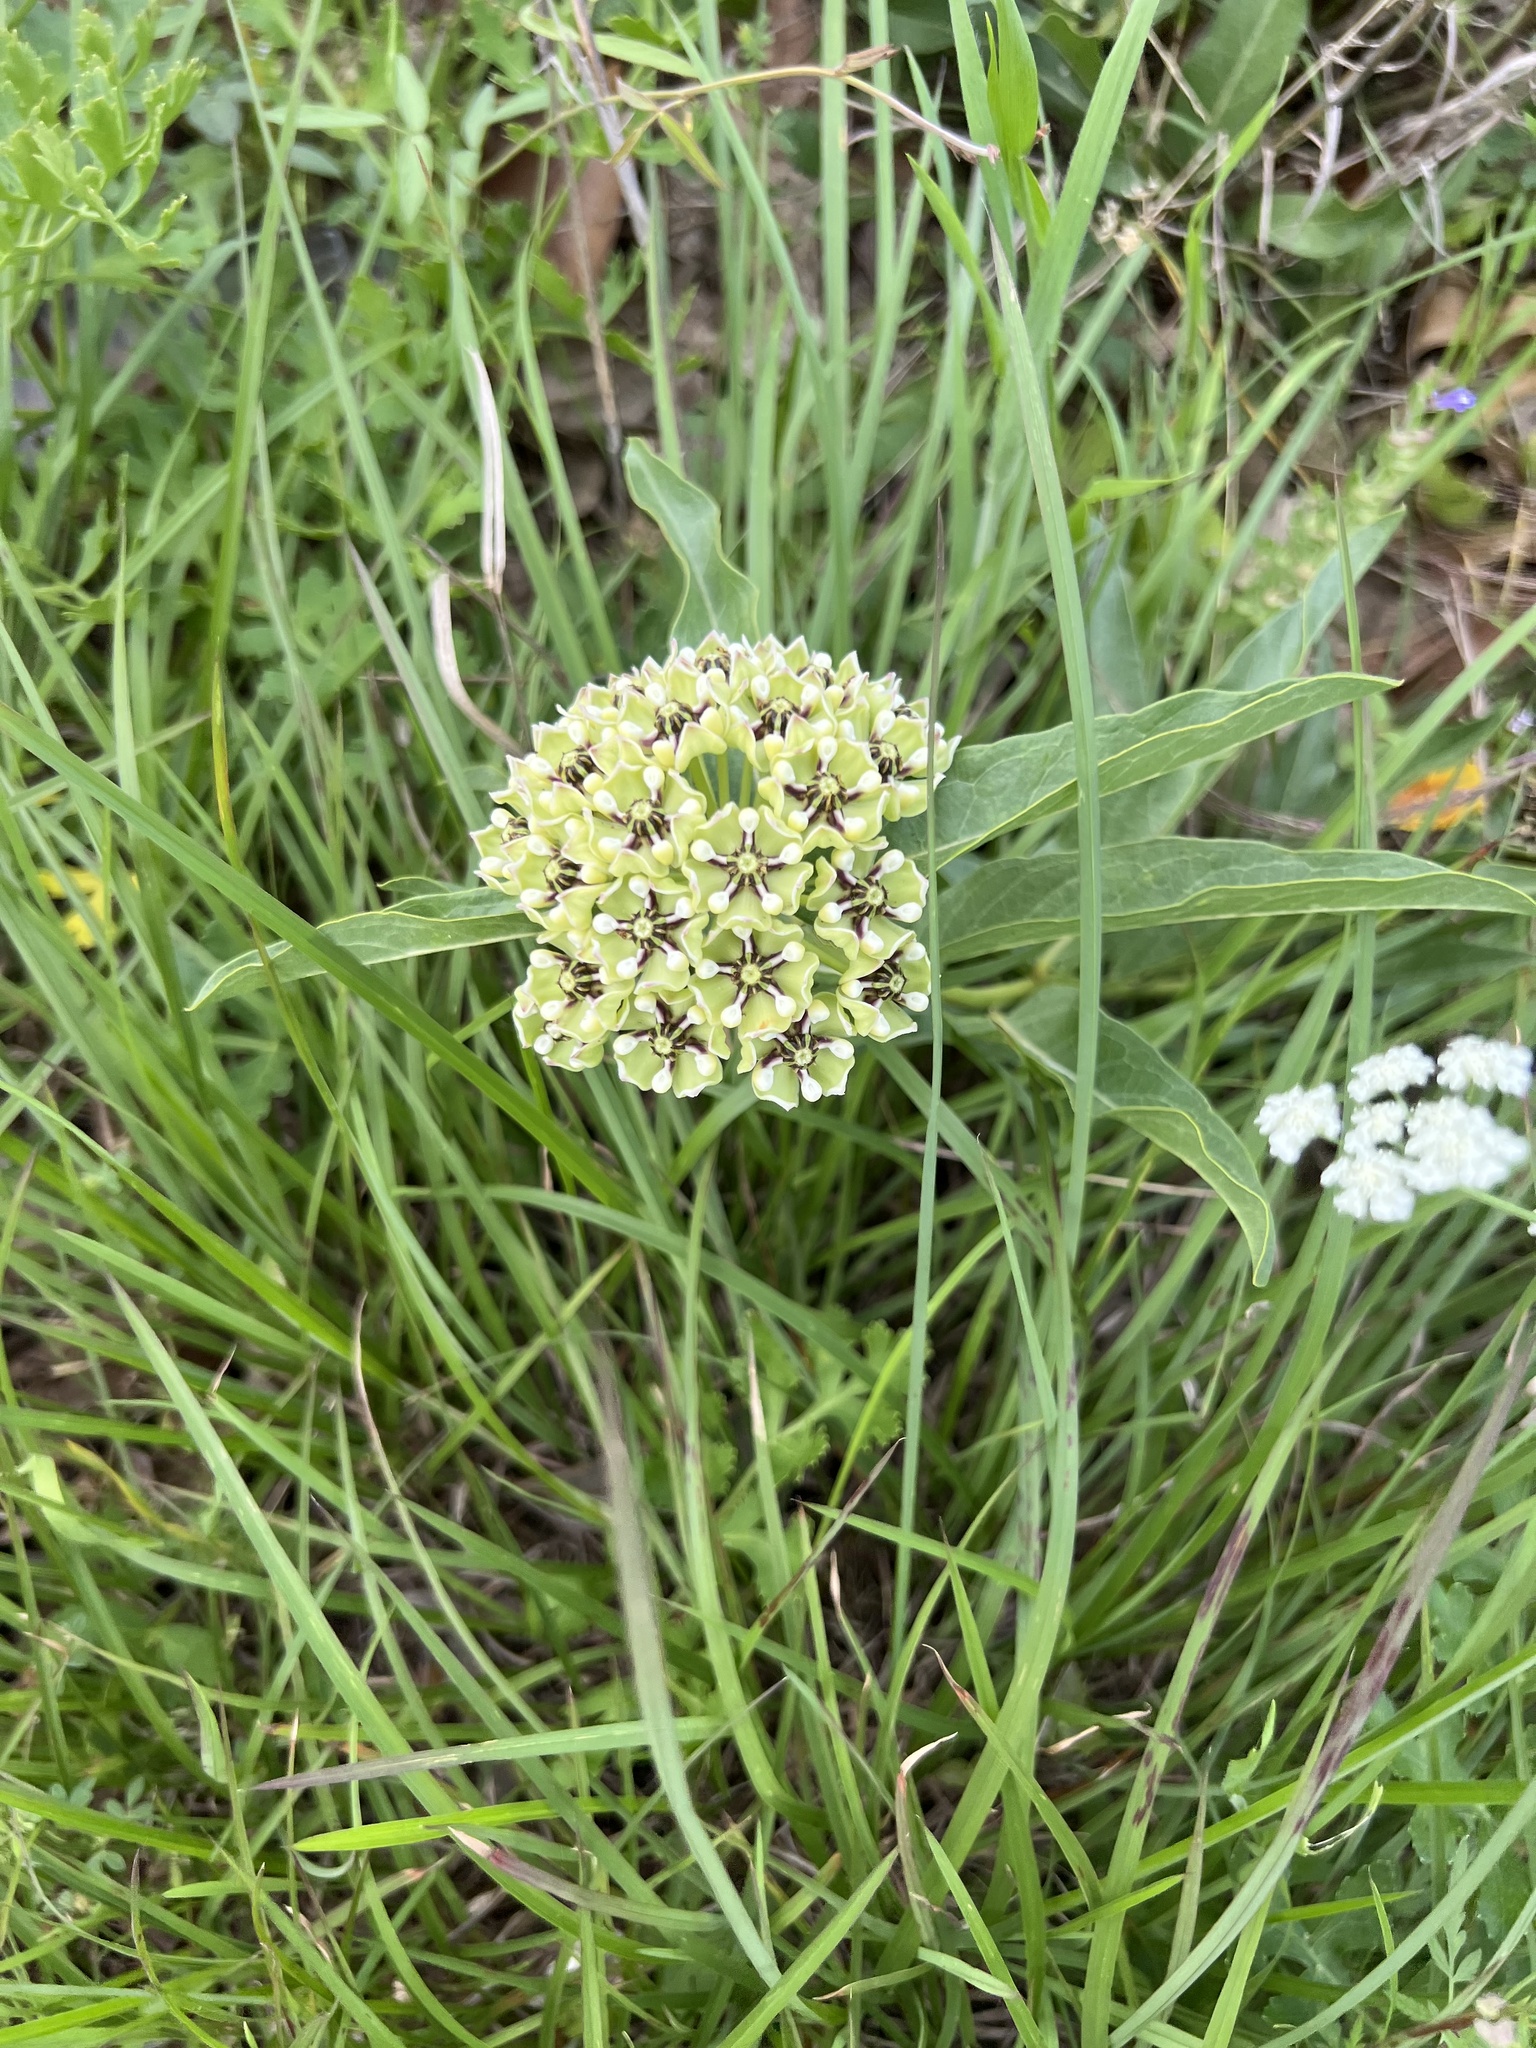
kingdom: Plantae
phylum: Tracheophyta
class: Magnoliopsida
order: Gentianales
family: Apocynaceae
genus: Asclepias
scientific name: Asclepias asperula
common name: Antelope horns
